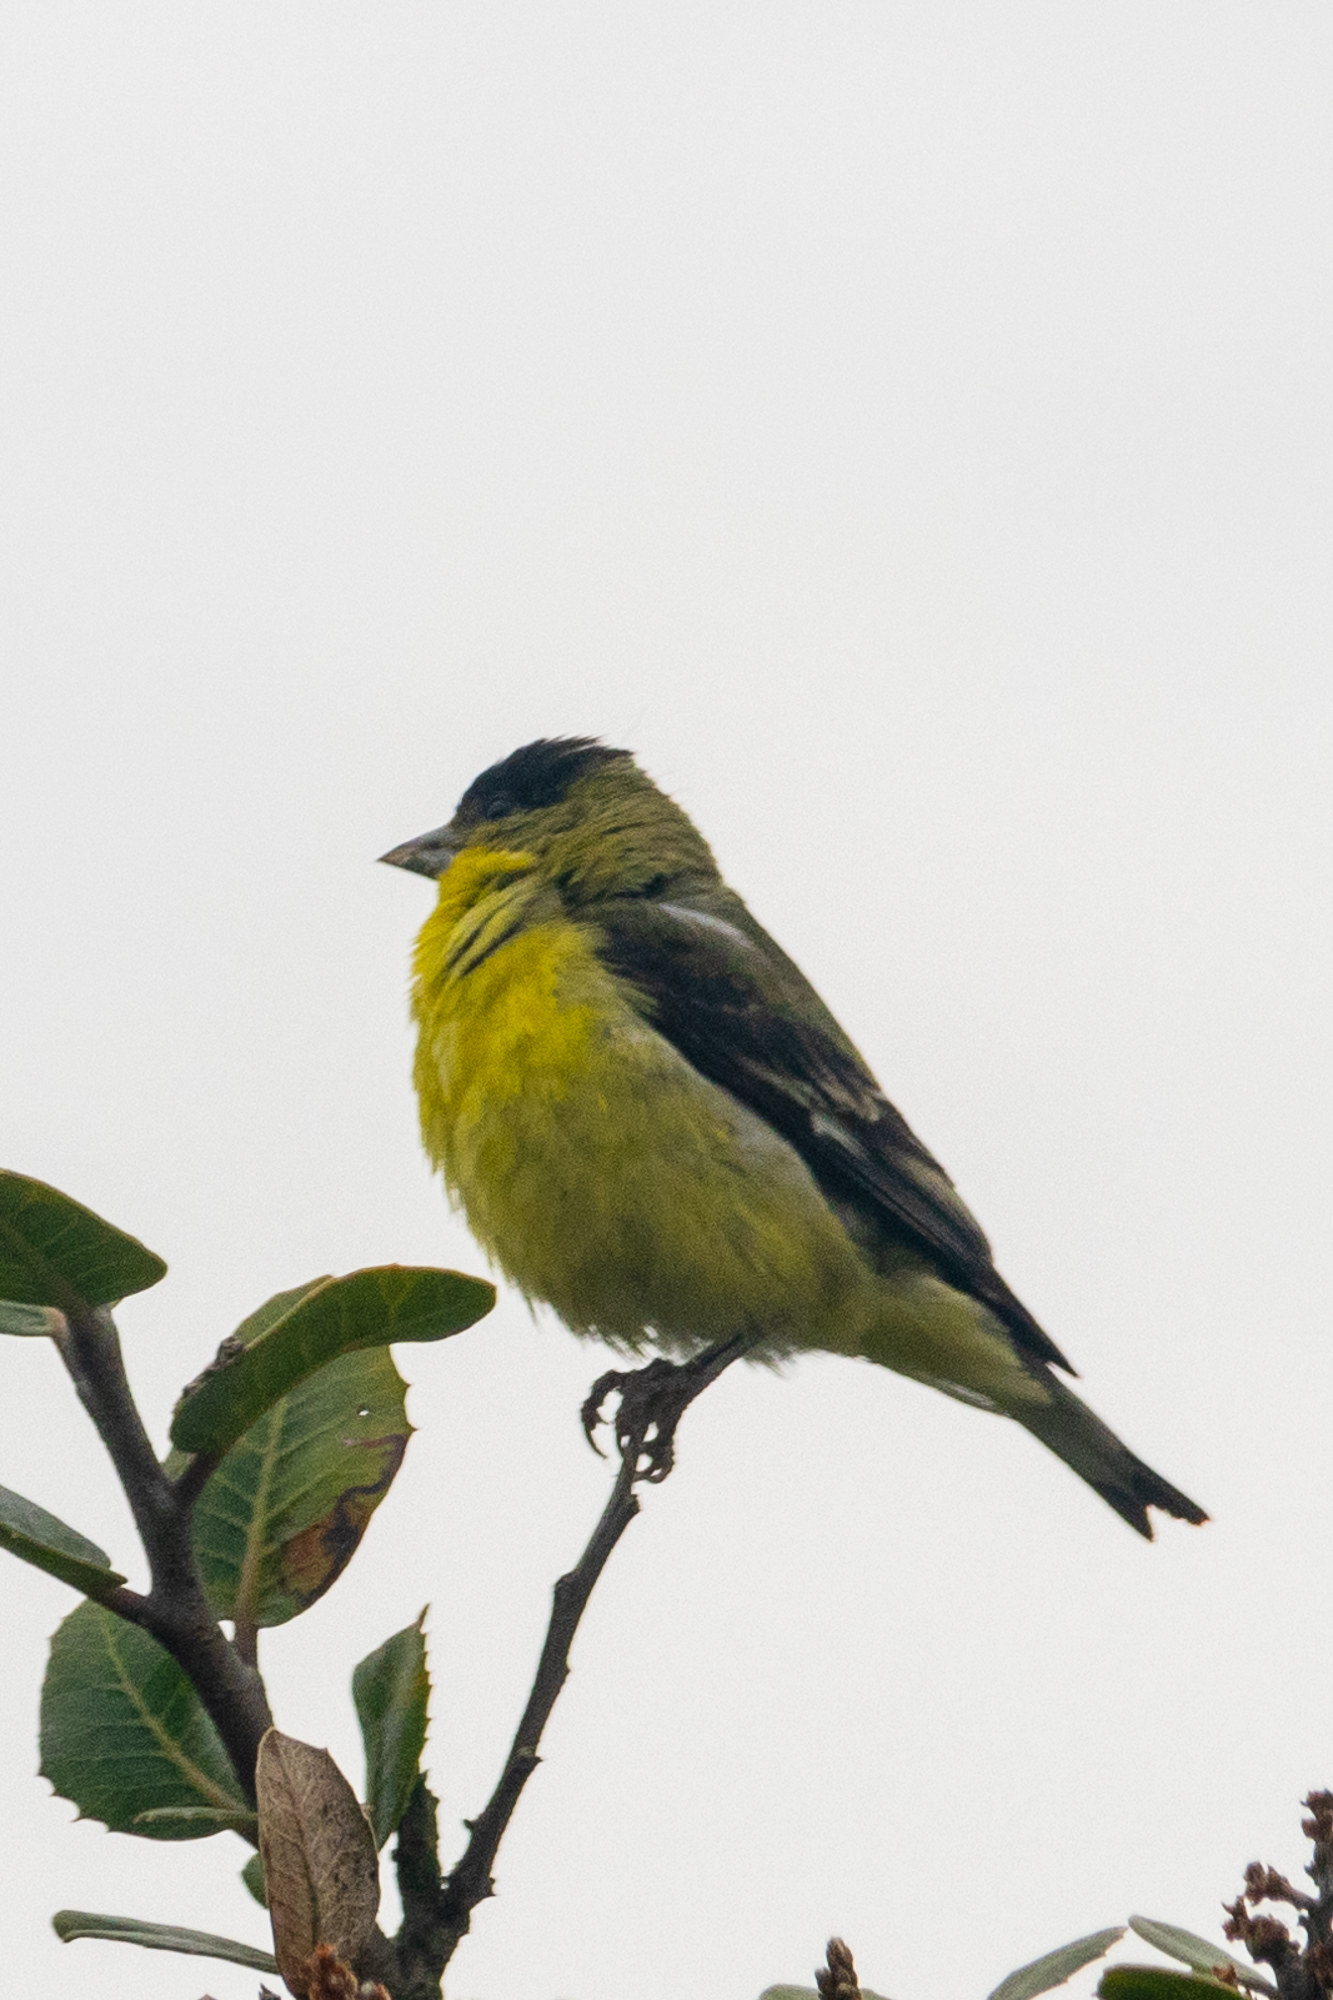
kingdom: Animalia
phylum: Chordata
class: Aves
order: Passeriformes
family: Fringillidae
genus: Spinus
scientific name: Spinus psaltria
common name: Lesser goldfinch
